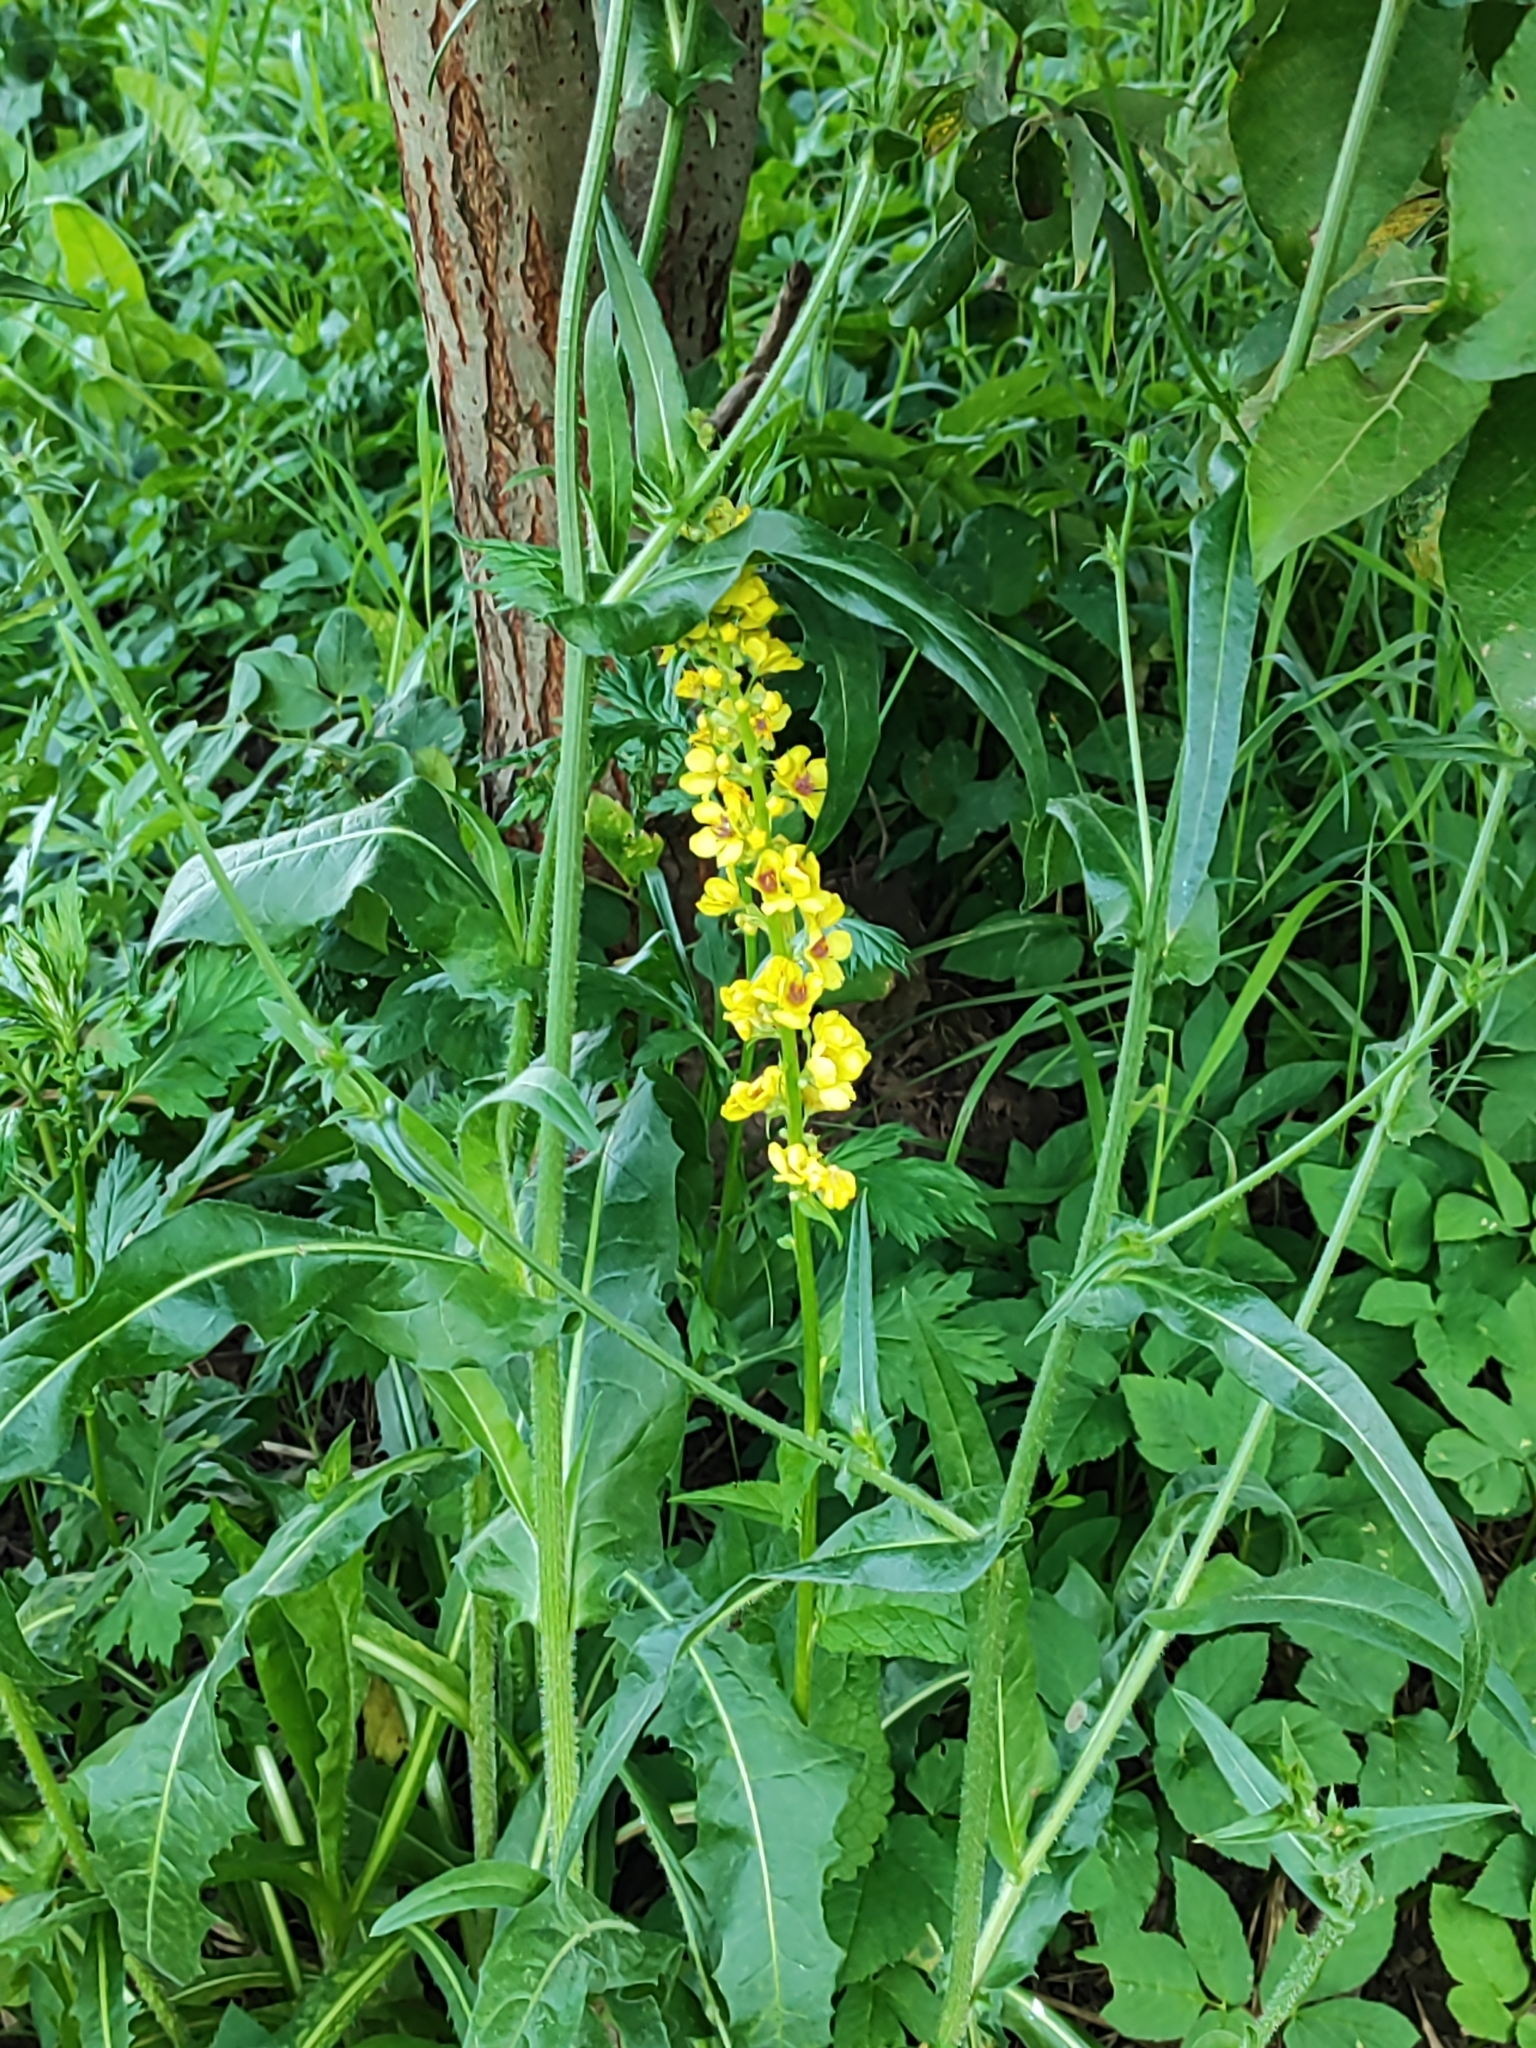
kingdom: Plantae
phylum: Tracheophyta
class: Magnoliopsida
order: Lamiales
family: Scrophulariaceae
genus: Verbascum
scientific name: Verbascum nigrum
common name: Dark mullein
